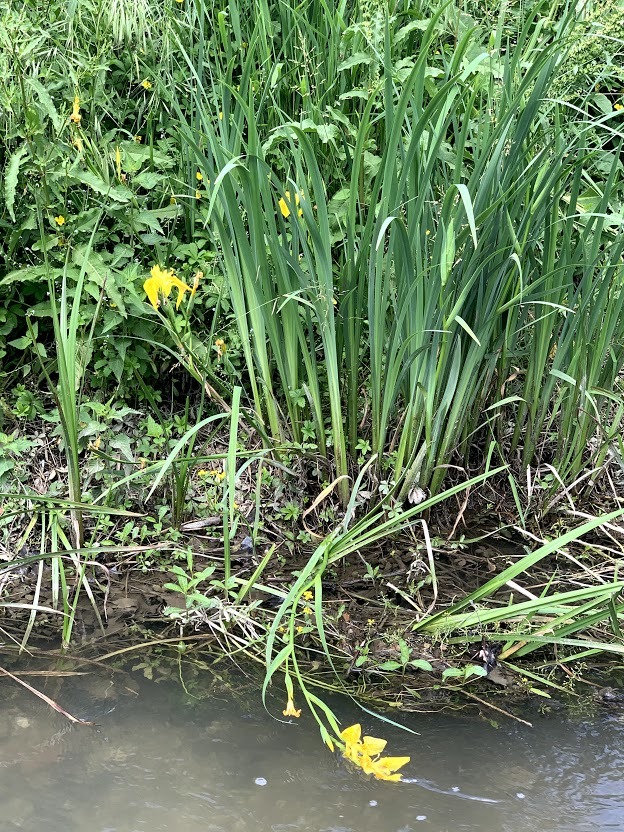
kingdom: Plantae
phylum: Tracheophyta
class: Liliopsida
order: Asparagales
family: Iridaceae
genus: Iris
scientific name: Iris pseudacorus
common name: Yellow flag
